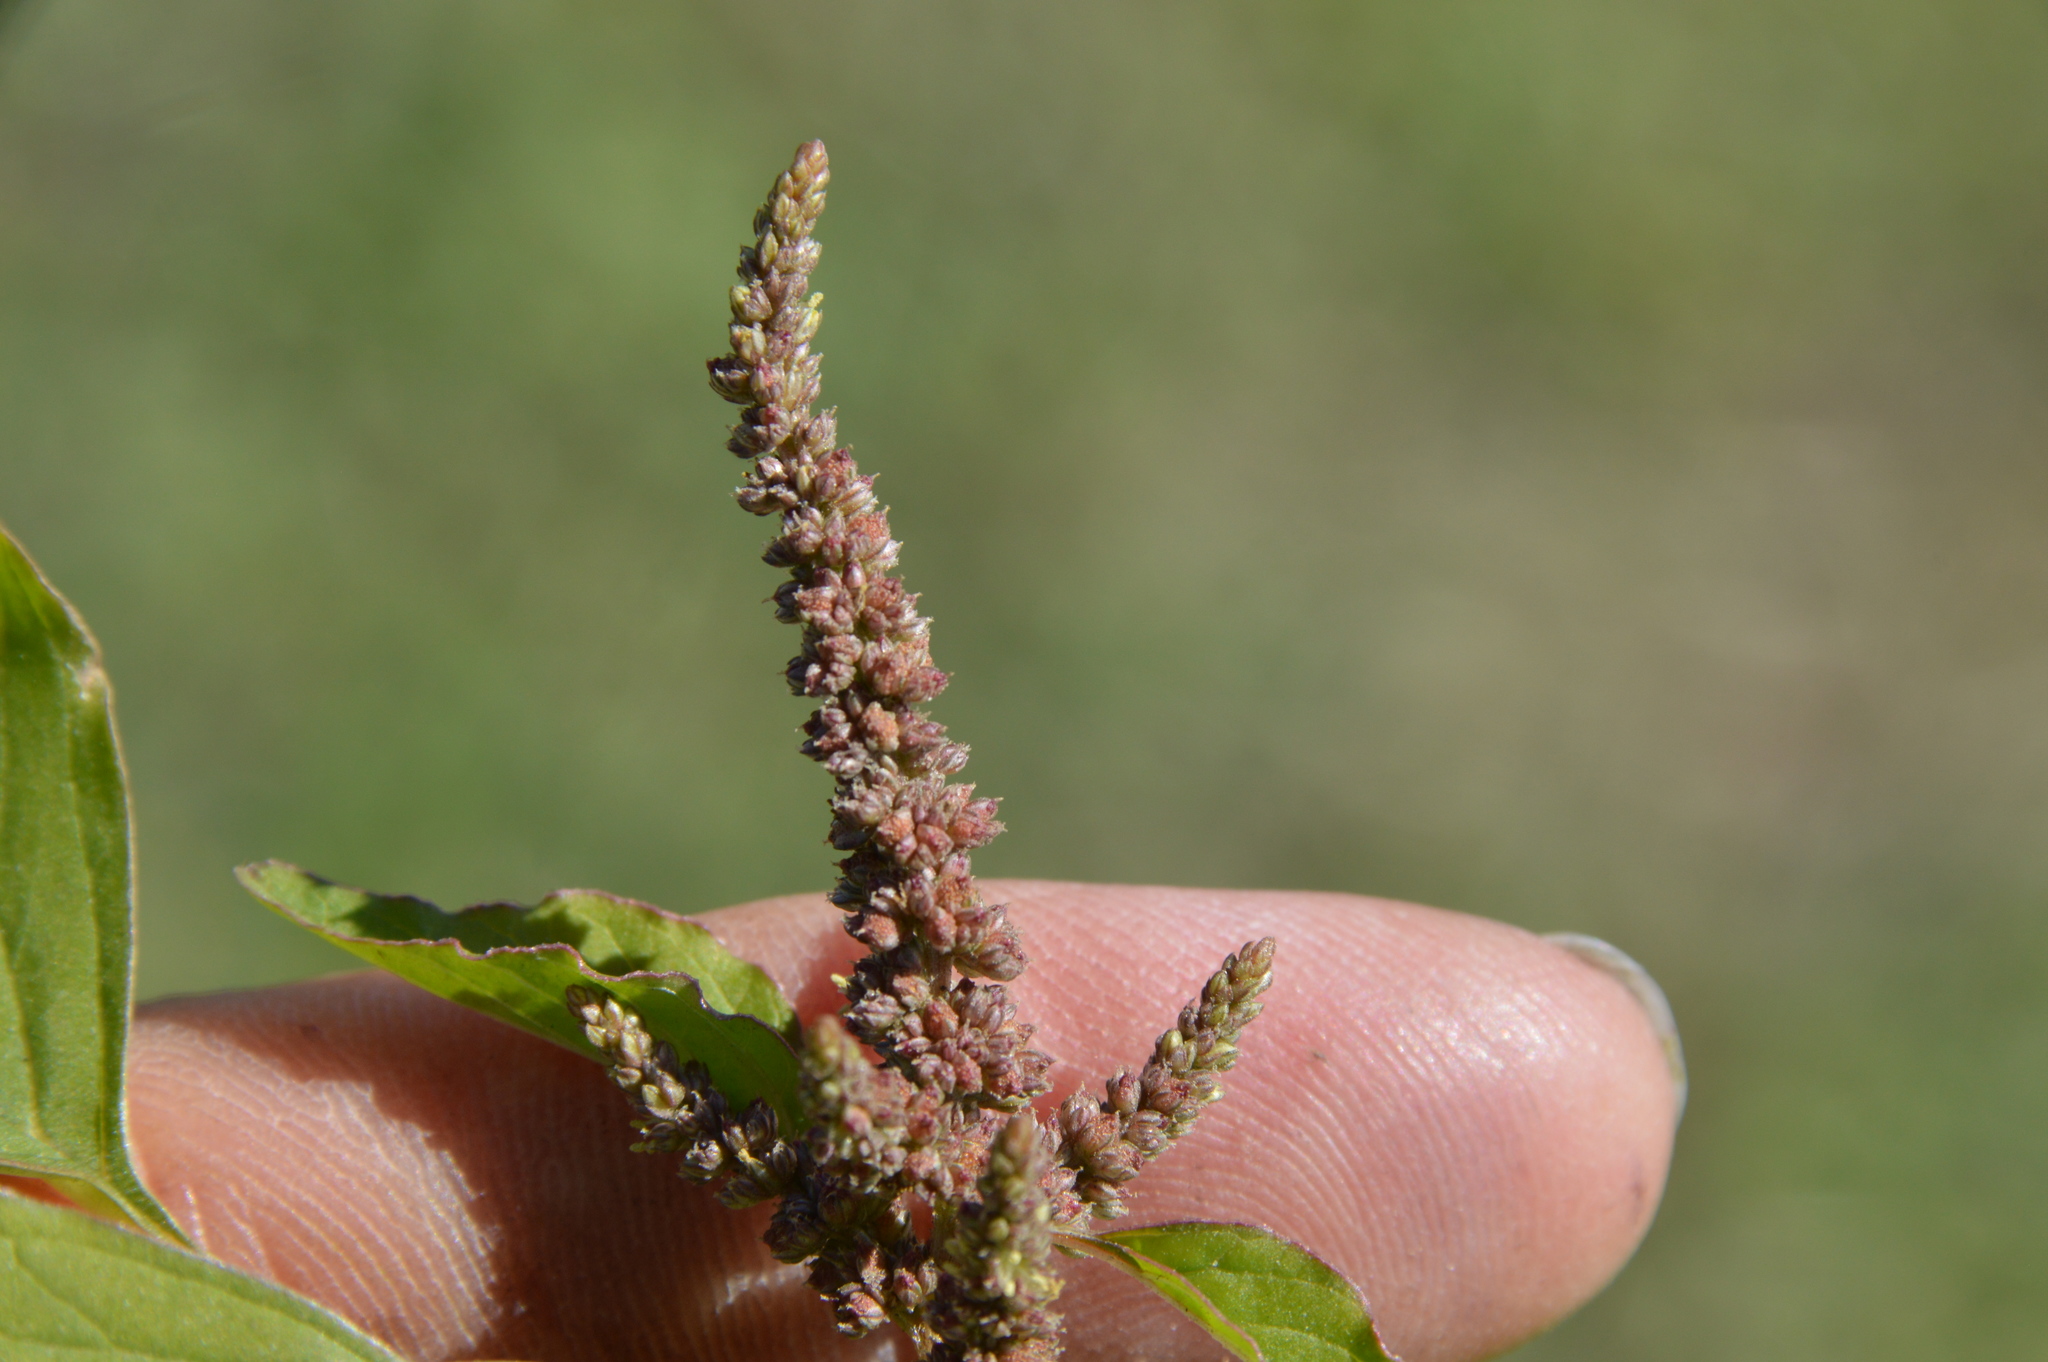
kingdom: Plantae
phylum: Tracheophyta
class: Magnoliopsida
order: Caryophyllales
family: Amaranthaceae
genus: Amaranthus
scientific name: Amaranthus viridis
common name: Slender amaranth
